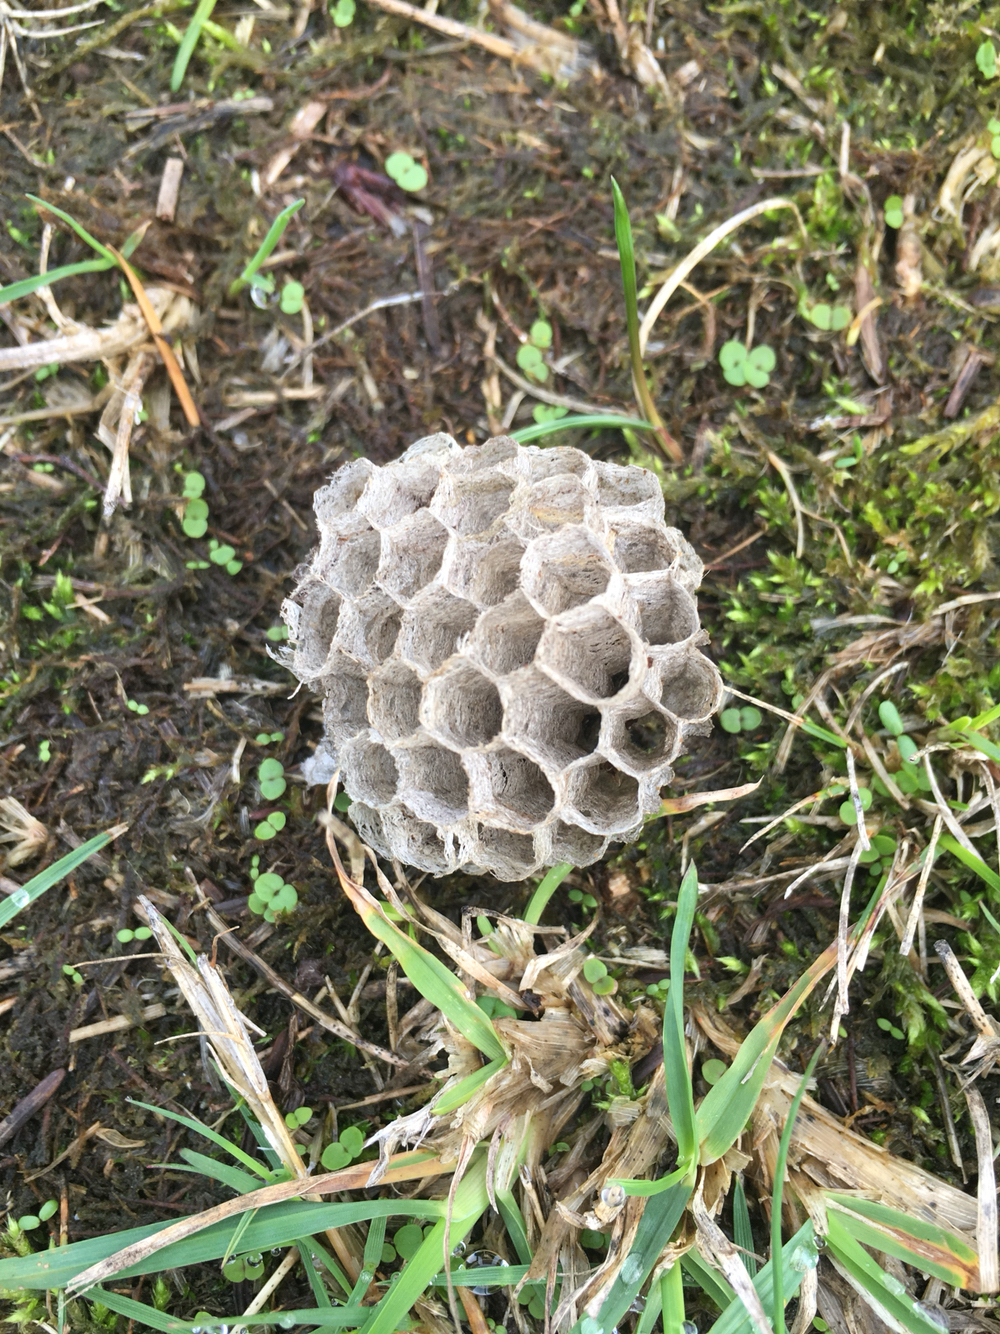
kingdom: Animalia
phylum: Arthropoda
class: Insecta
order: Hymenoptera
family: Vespidae
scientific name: Vespidae
